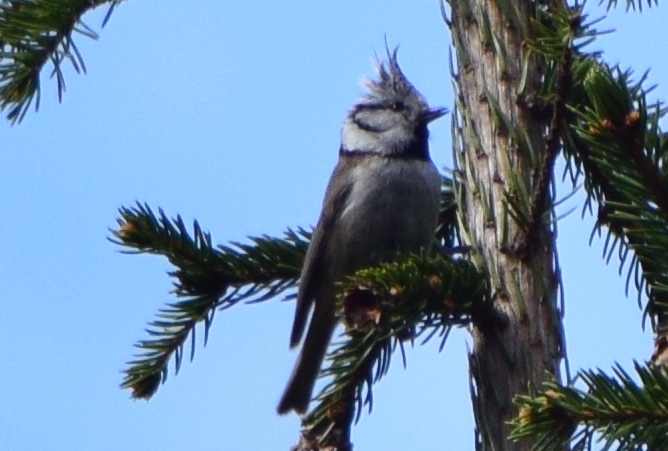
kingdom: Animalia
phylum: Chordata
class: Aves
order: Passeriformes
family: Paridae
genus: Lophophanes
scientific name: Lophophanes cristatus
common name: European crested tit
